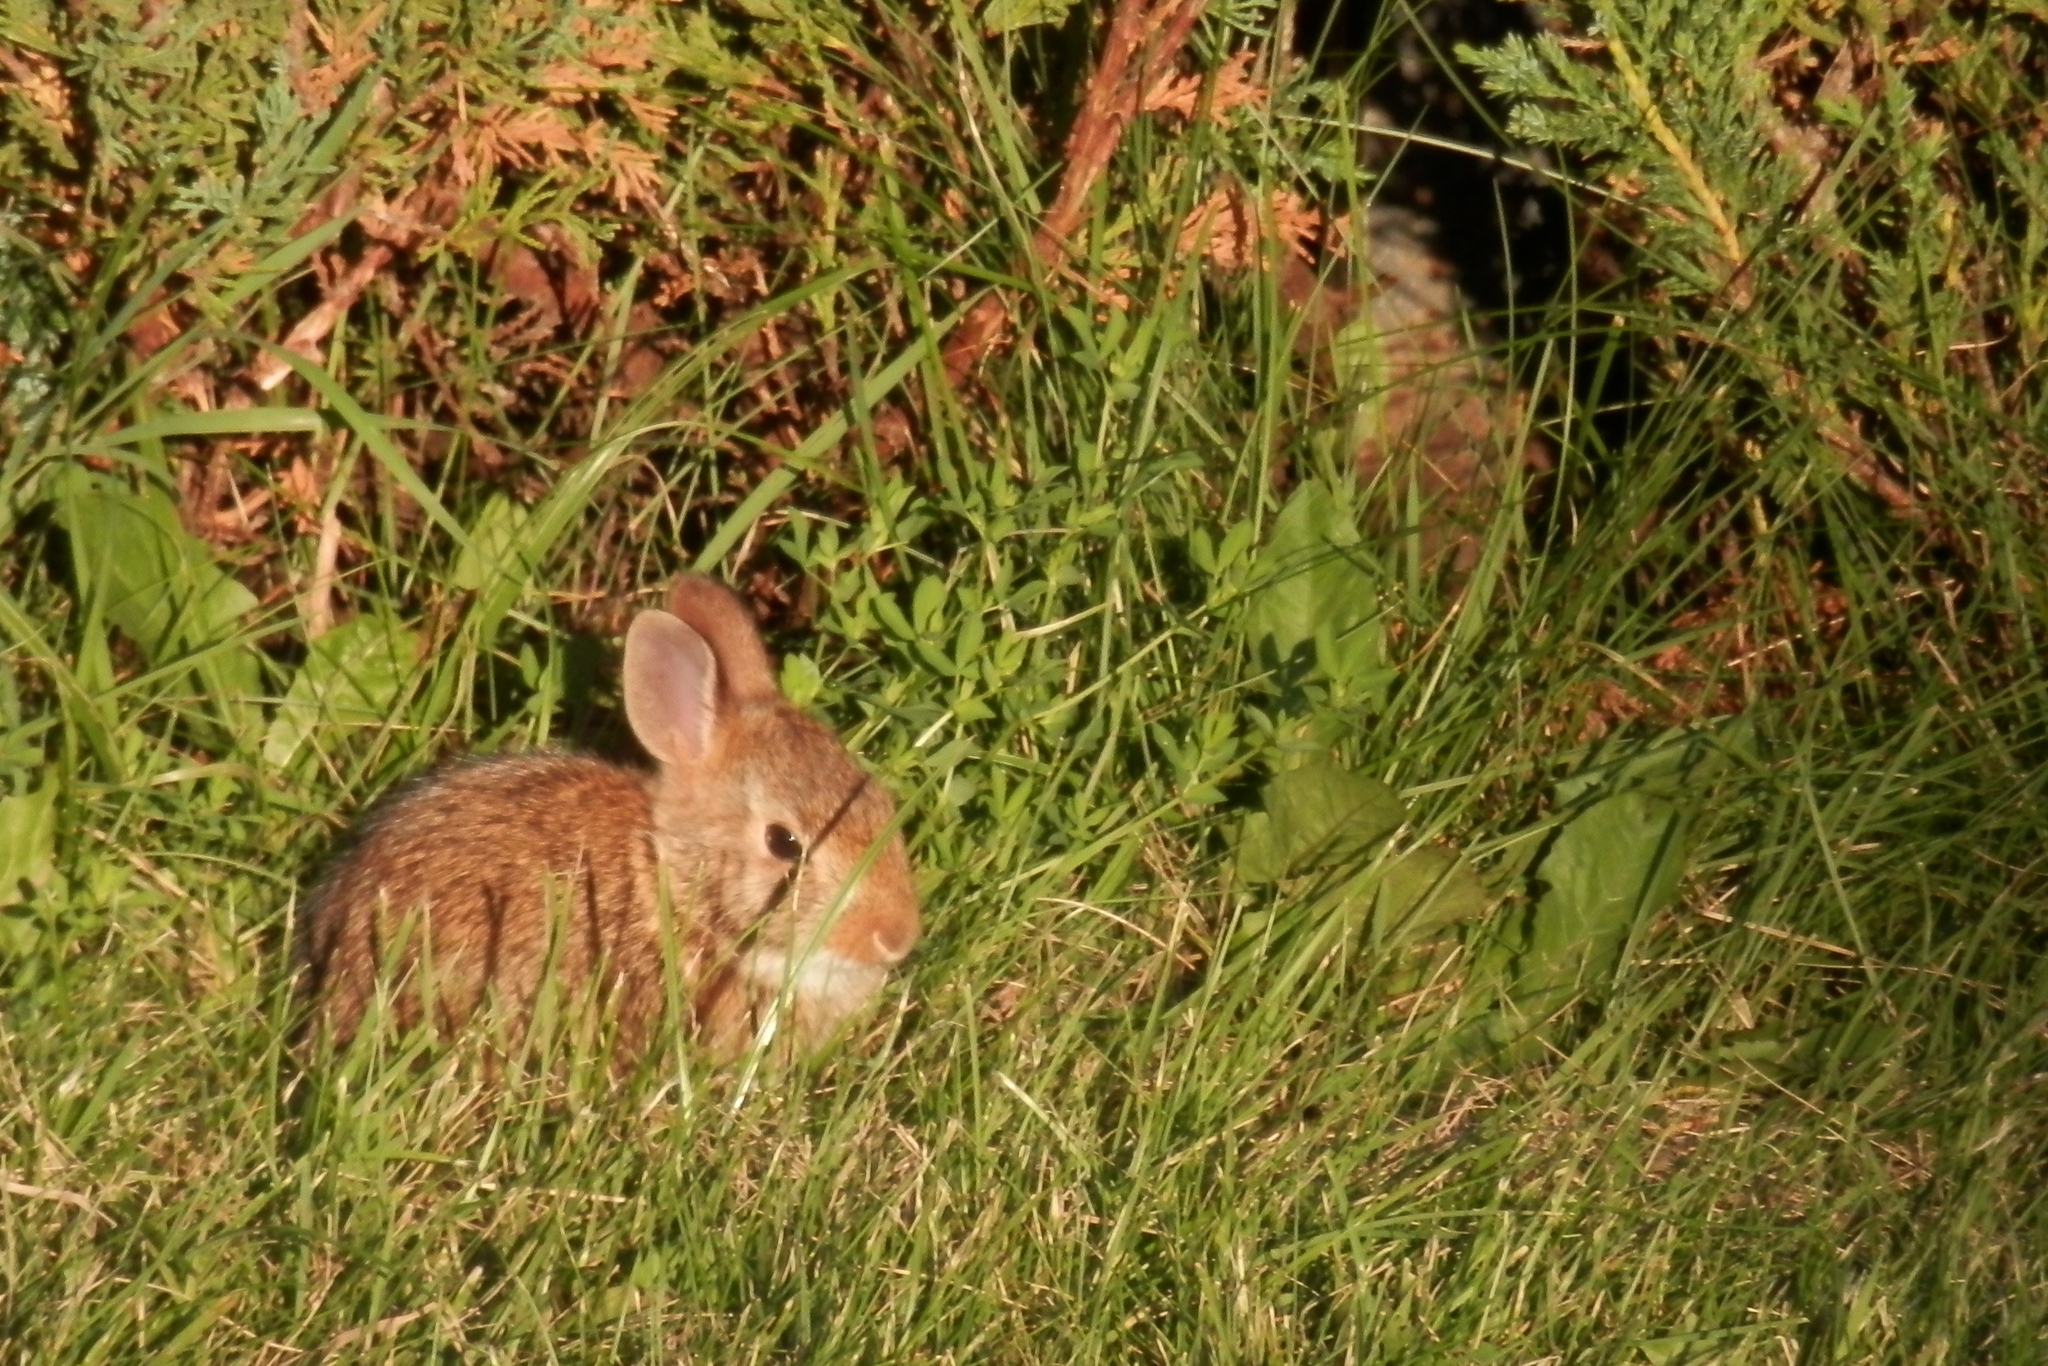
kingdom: Animalia
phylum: Chordata
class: Mammalia
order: Lagomorpha
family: Leporidae
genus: Sylvilagus
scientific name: Sylvilagus floridanus
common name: Eastern cottontail
